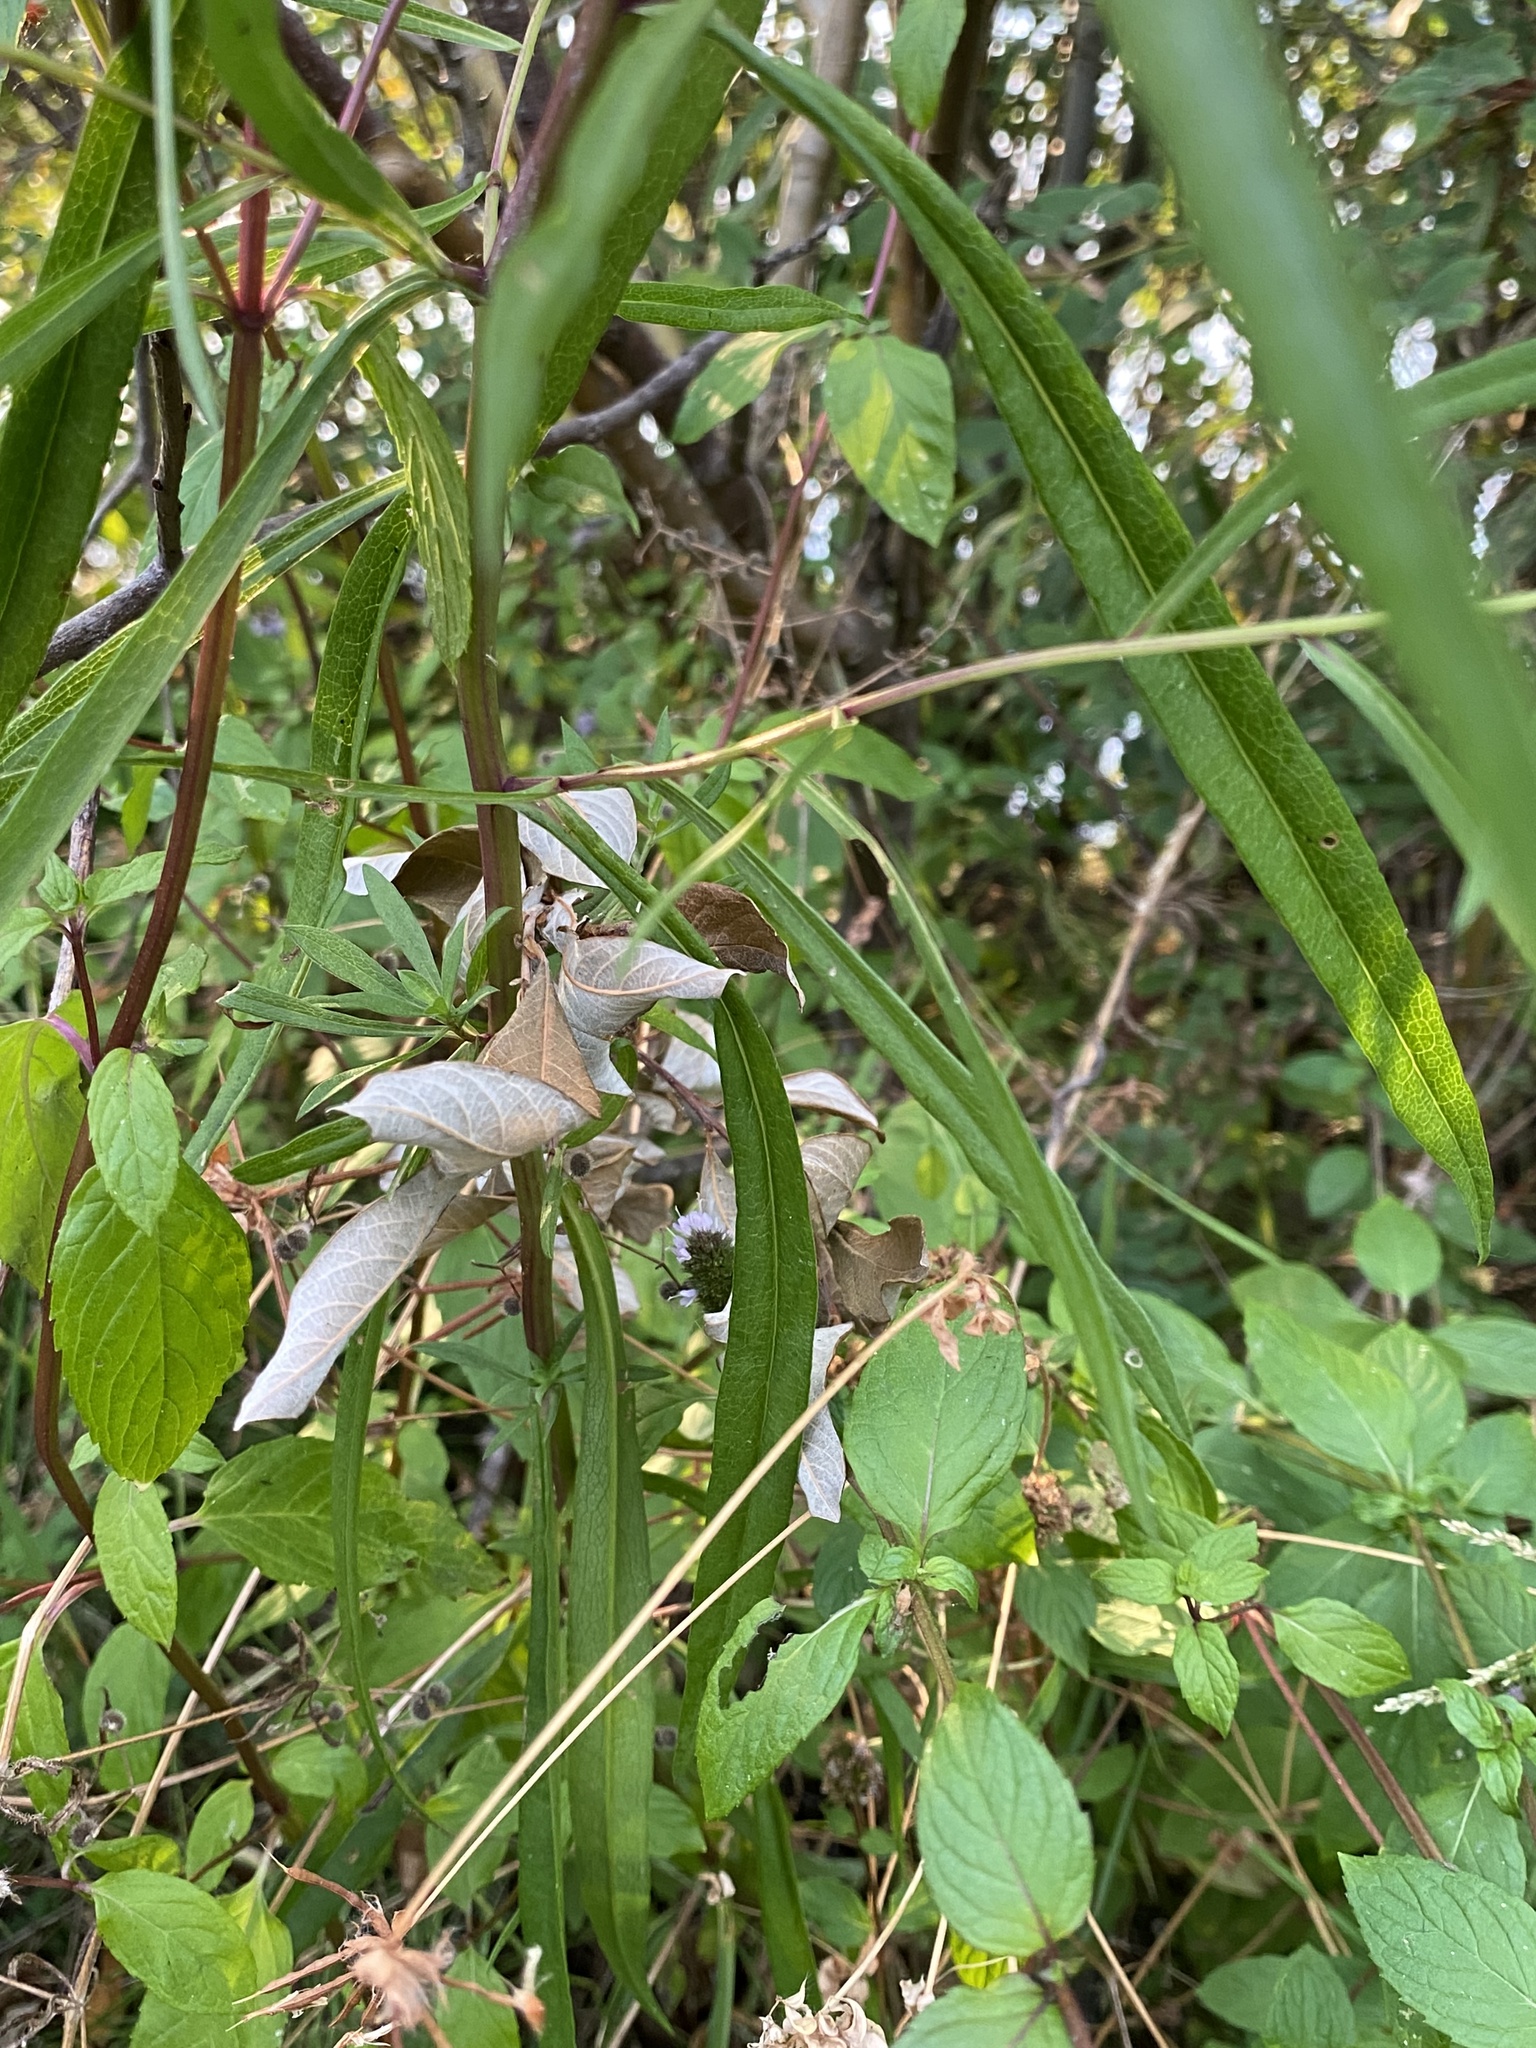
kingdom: Plantae
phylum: Tracheophyta
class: Magnoliopsida
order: Asterales
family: Asteraceae
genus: Symphyotrichum
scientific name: Symphyotrichum subspicatum
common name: Douglas' aster
